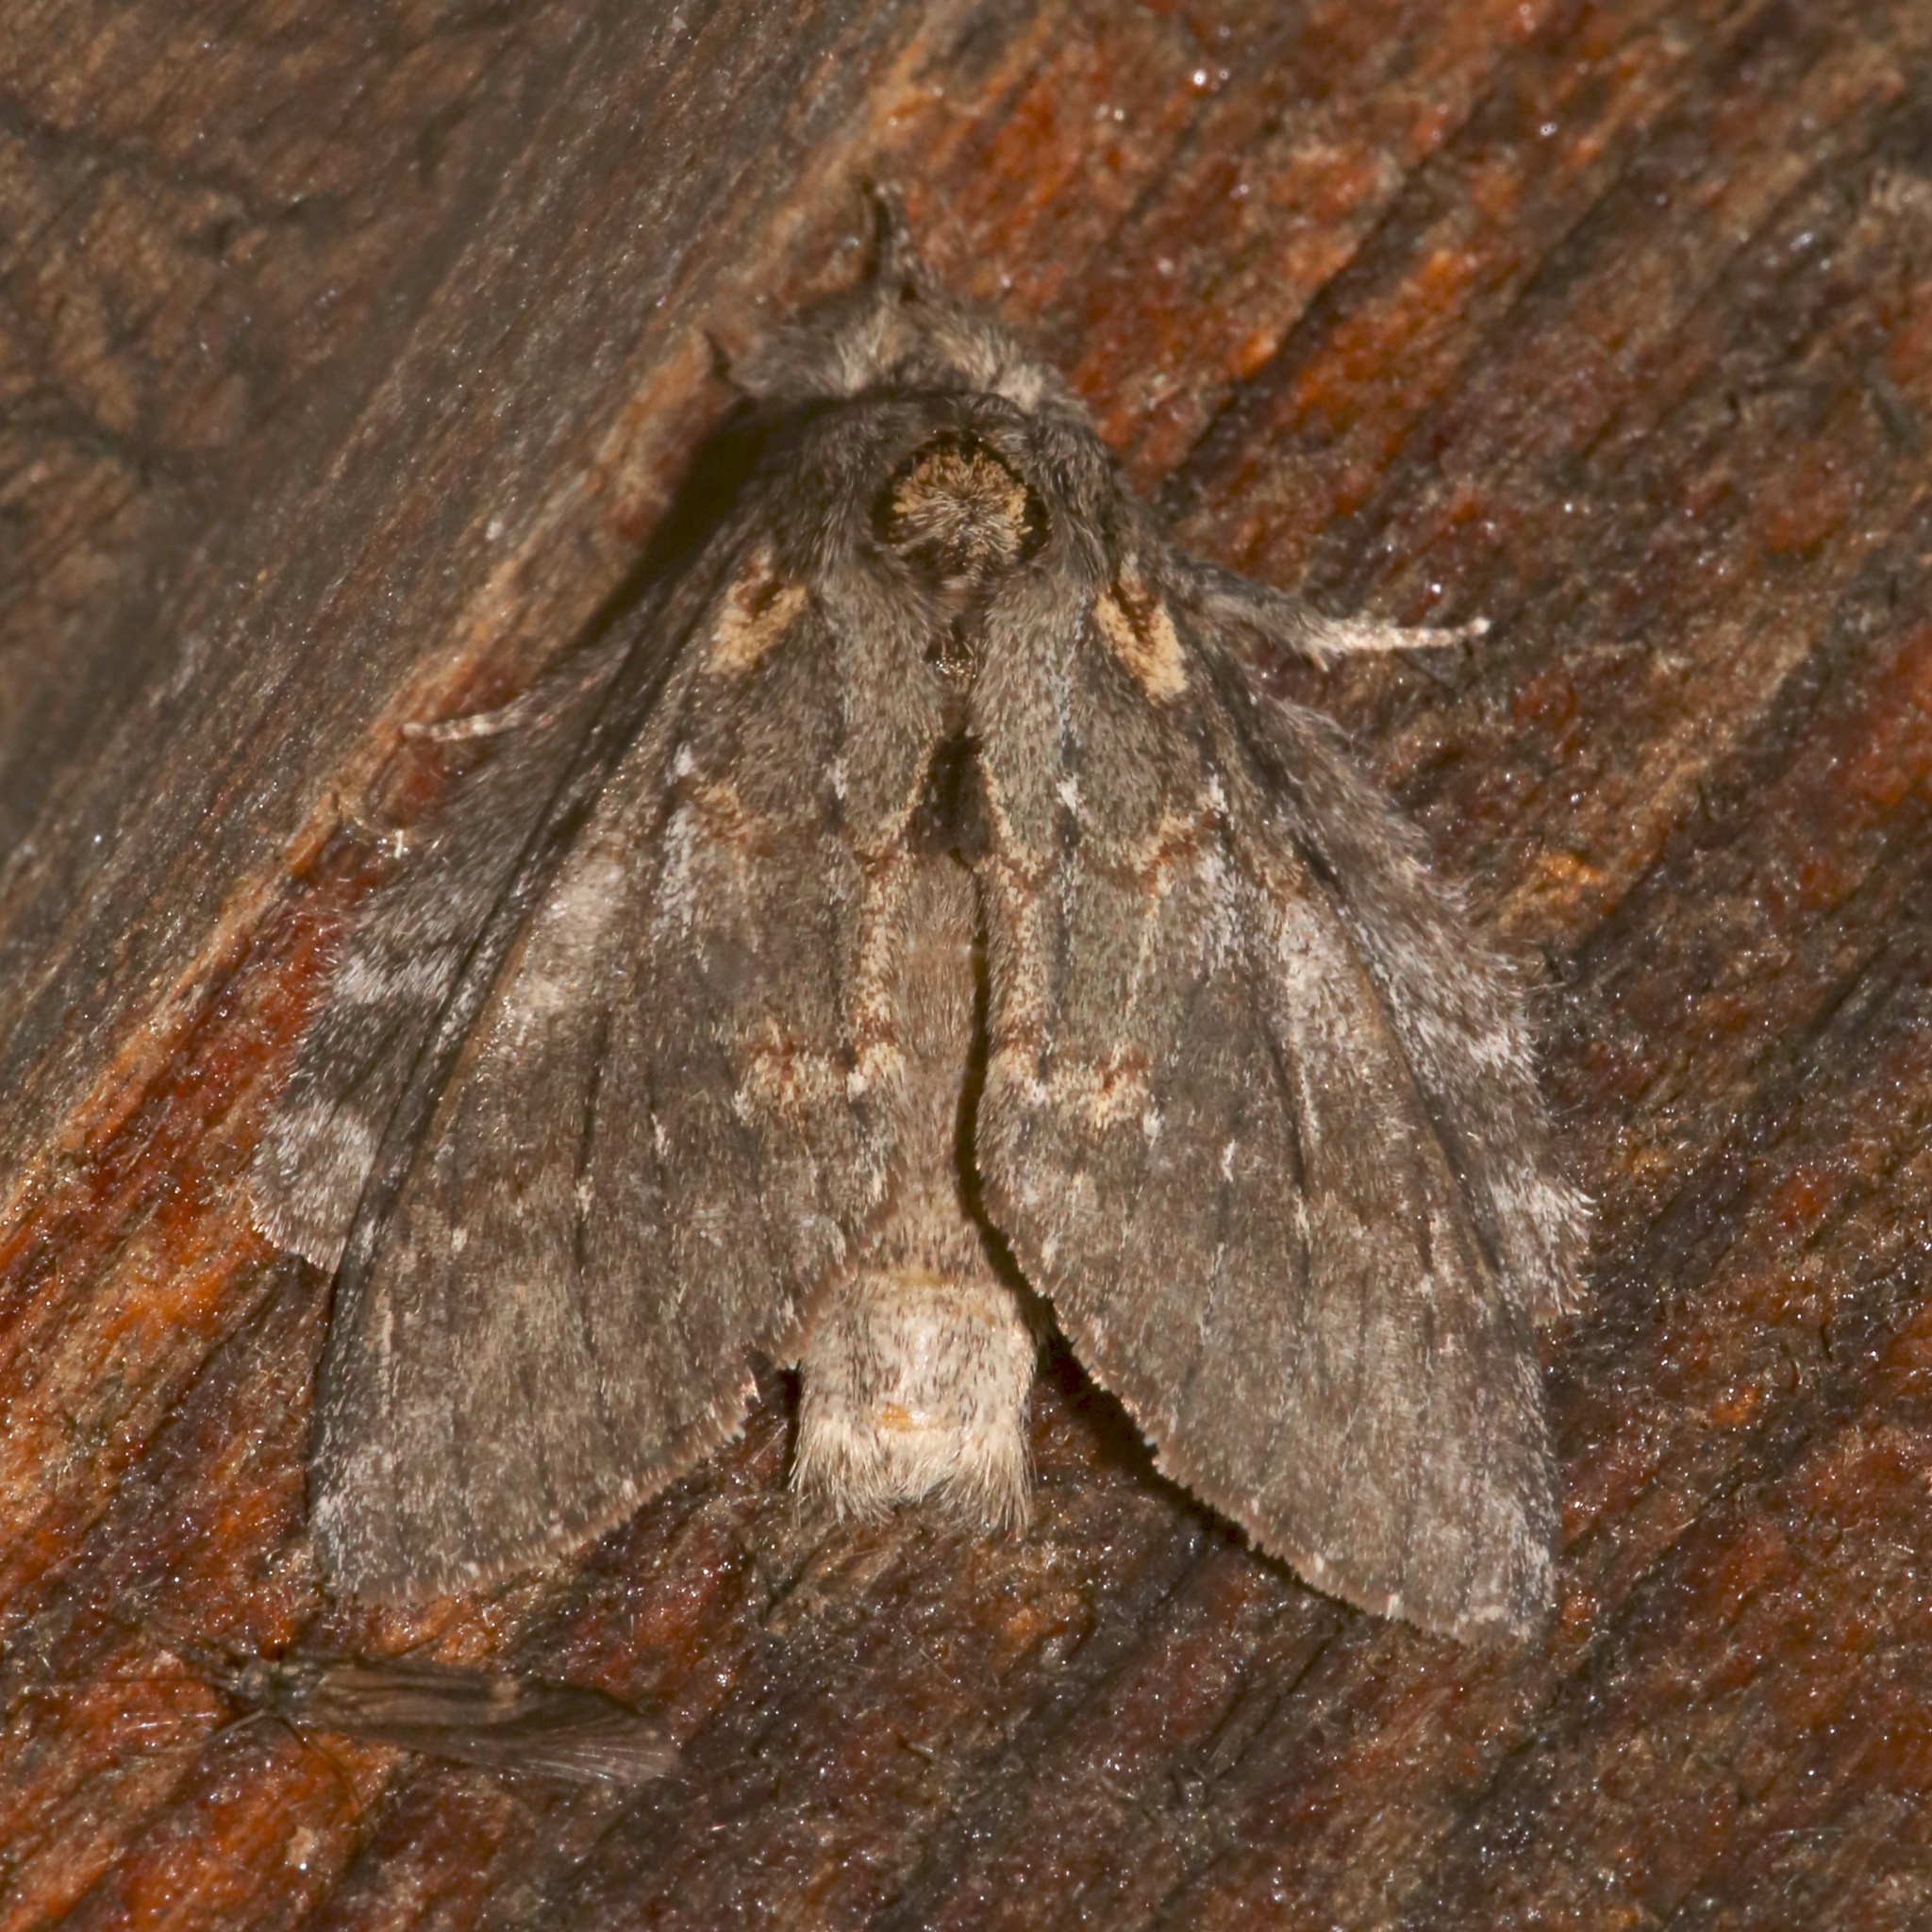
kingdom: Animalia
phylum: Arthropoda
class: Insecta
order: Lepidoptera
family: Notodontidae
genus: Peridea
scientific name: Peridea angulosa
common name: Angulose prominent
